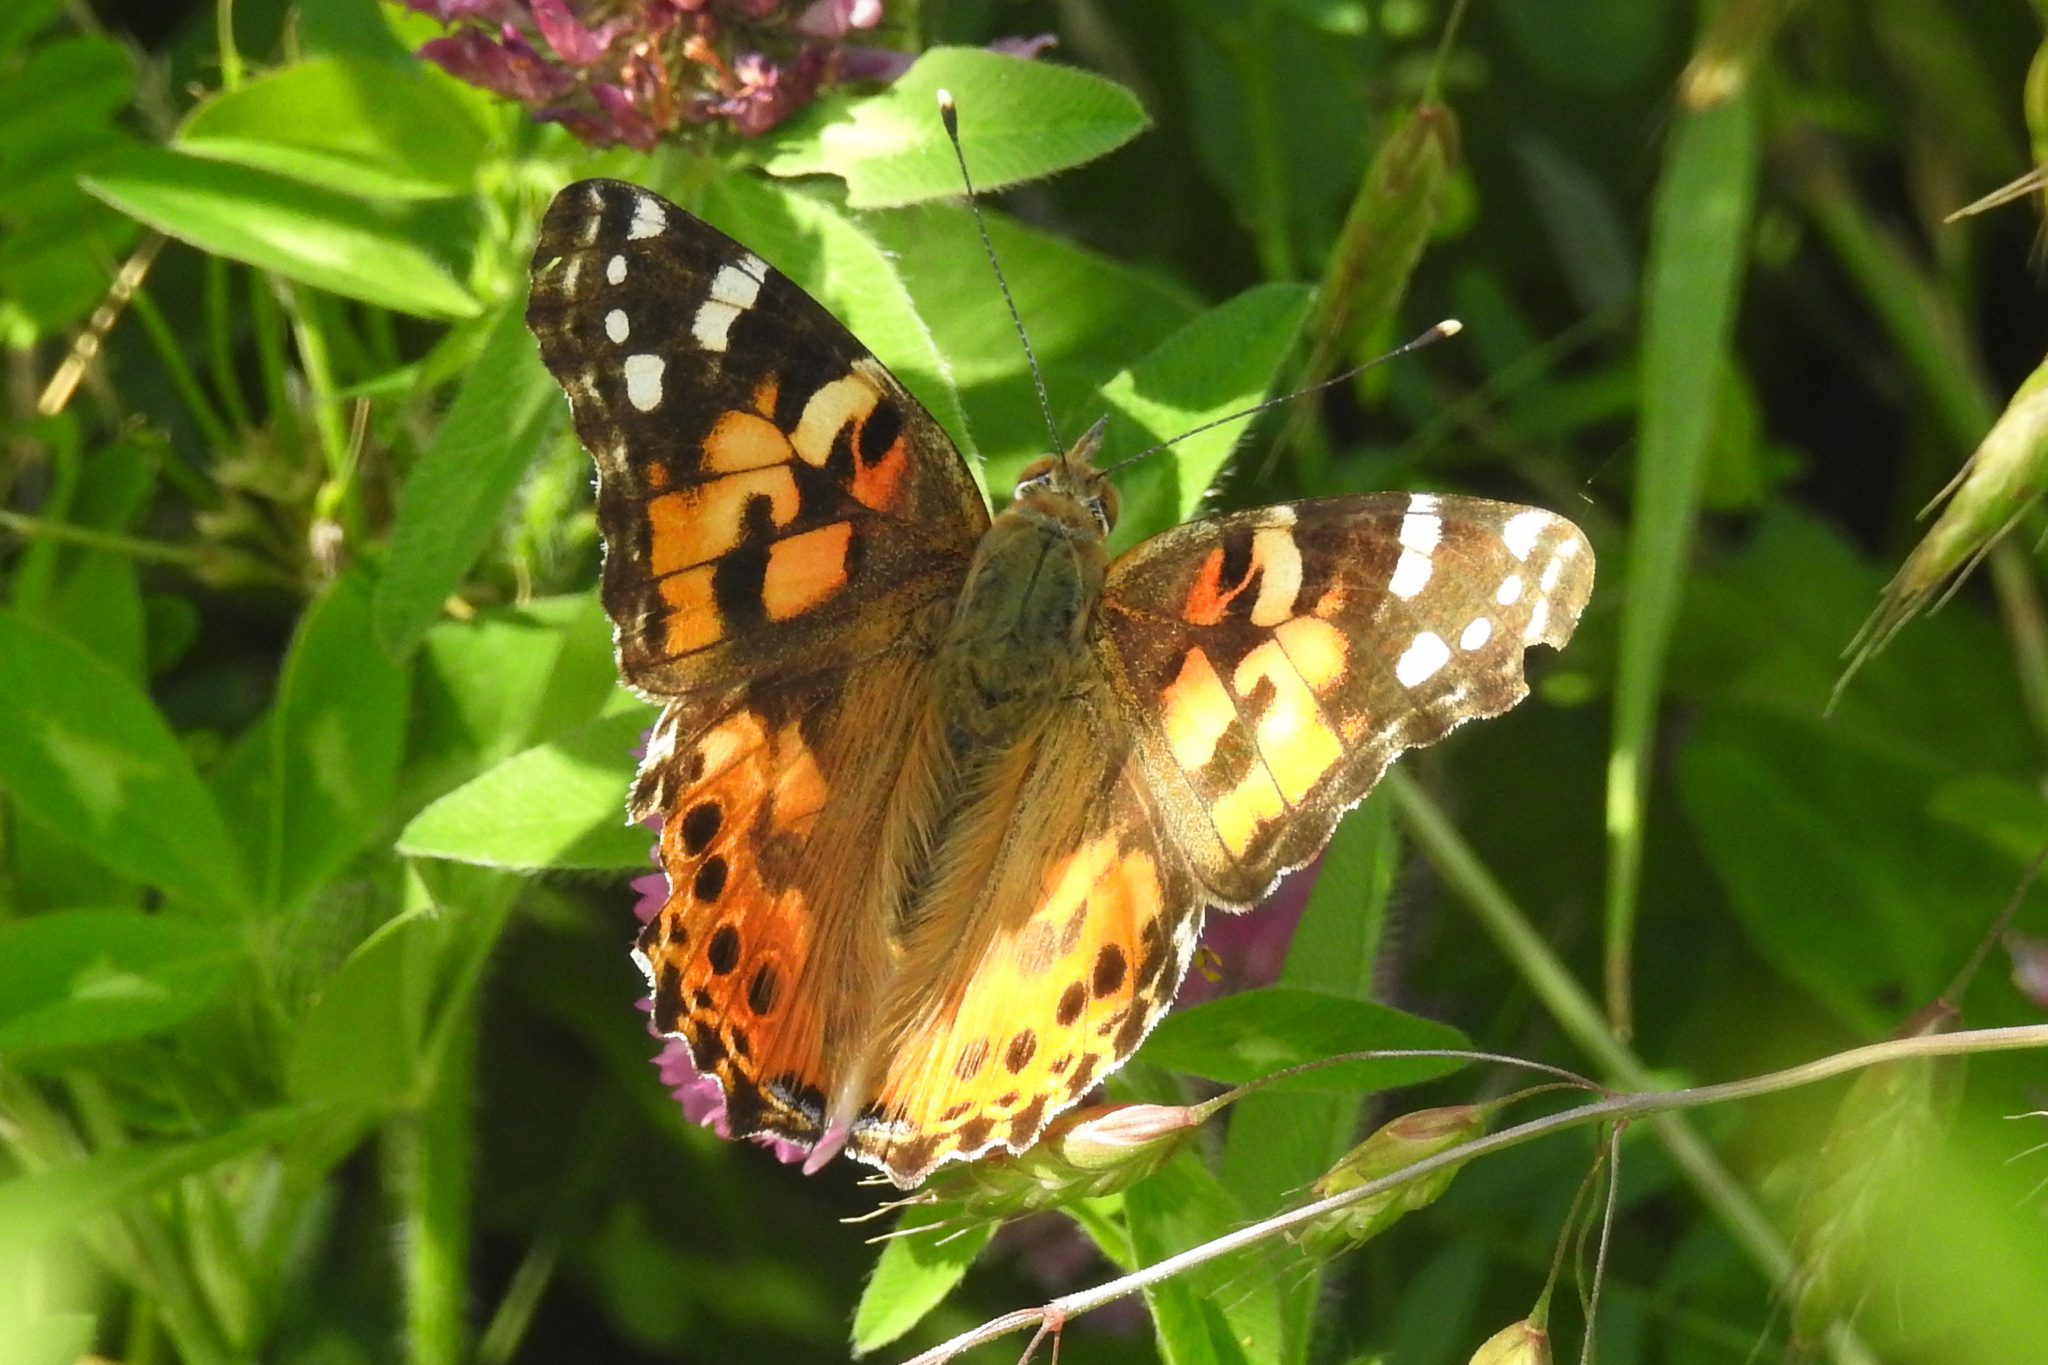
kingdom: Animalia
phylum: Arthropoda
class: Insecta
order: Lepidoptera
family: Nymphalidae
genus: Vanessa
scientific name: Vanessa cardui
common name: Painted lady
